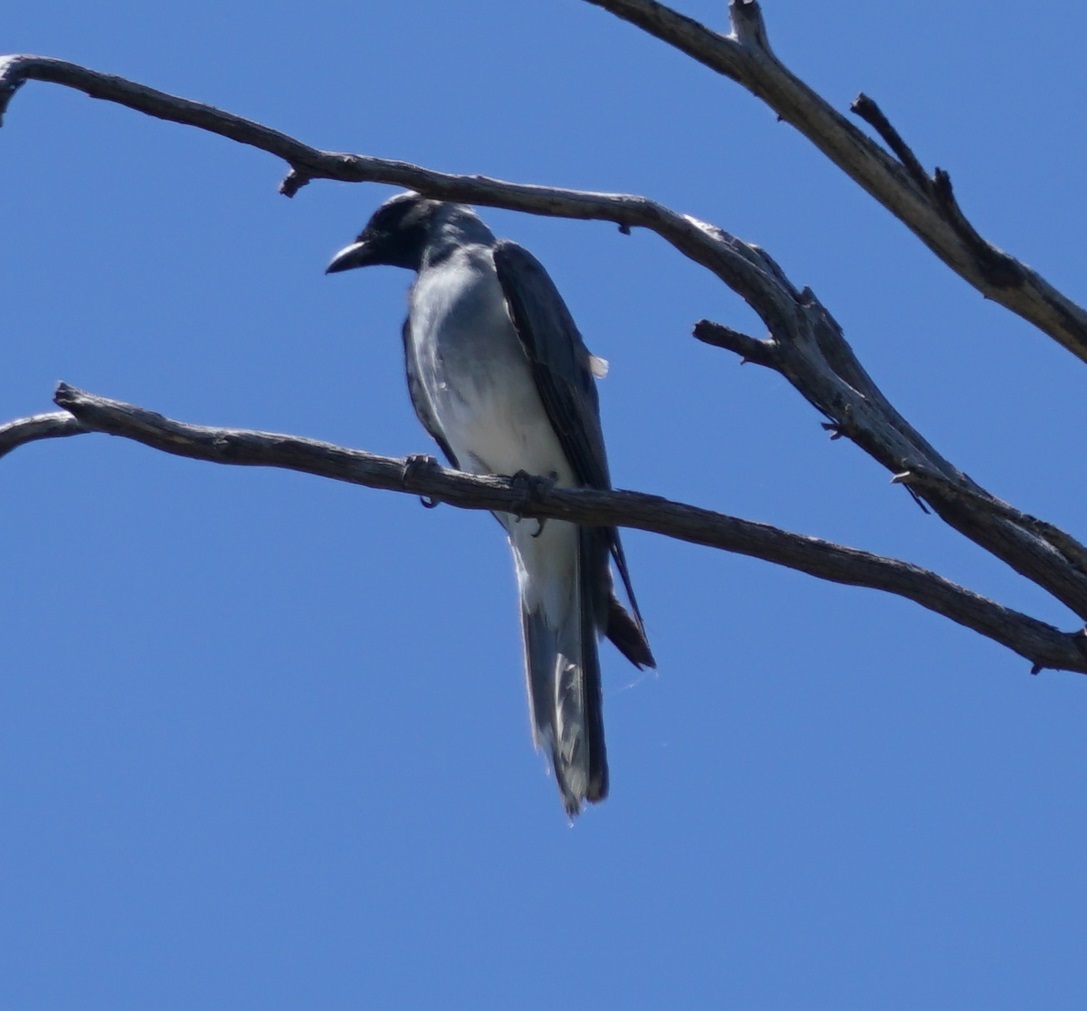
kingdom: Animalia
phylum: Chordata
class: Aves
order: Passeriformes
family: Campephagidae
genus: Coracina
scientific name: Coracina novaehollandiae
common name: Black-faced cuckooshrike
